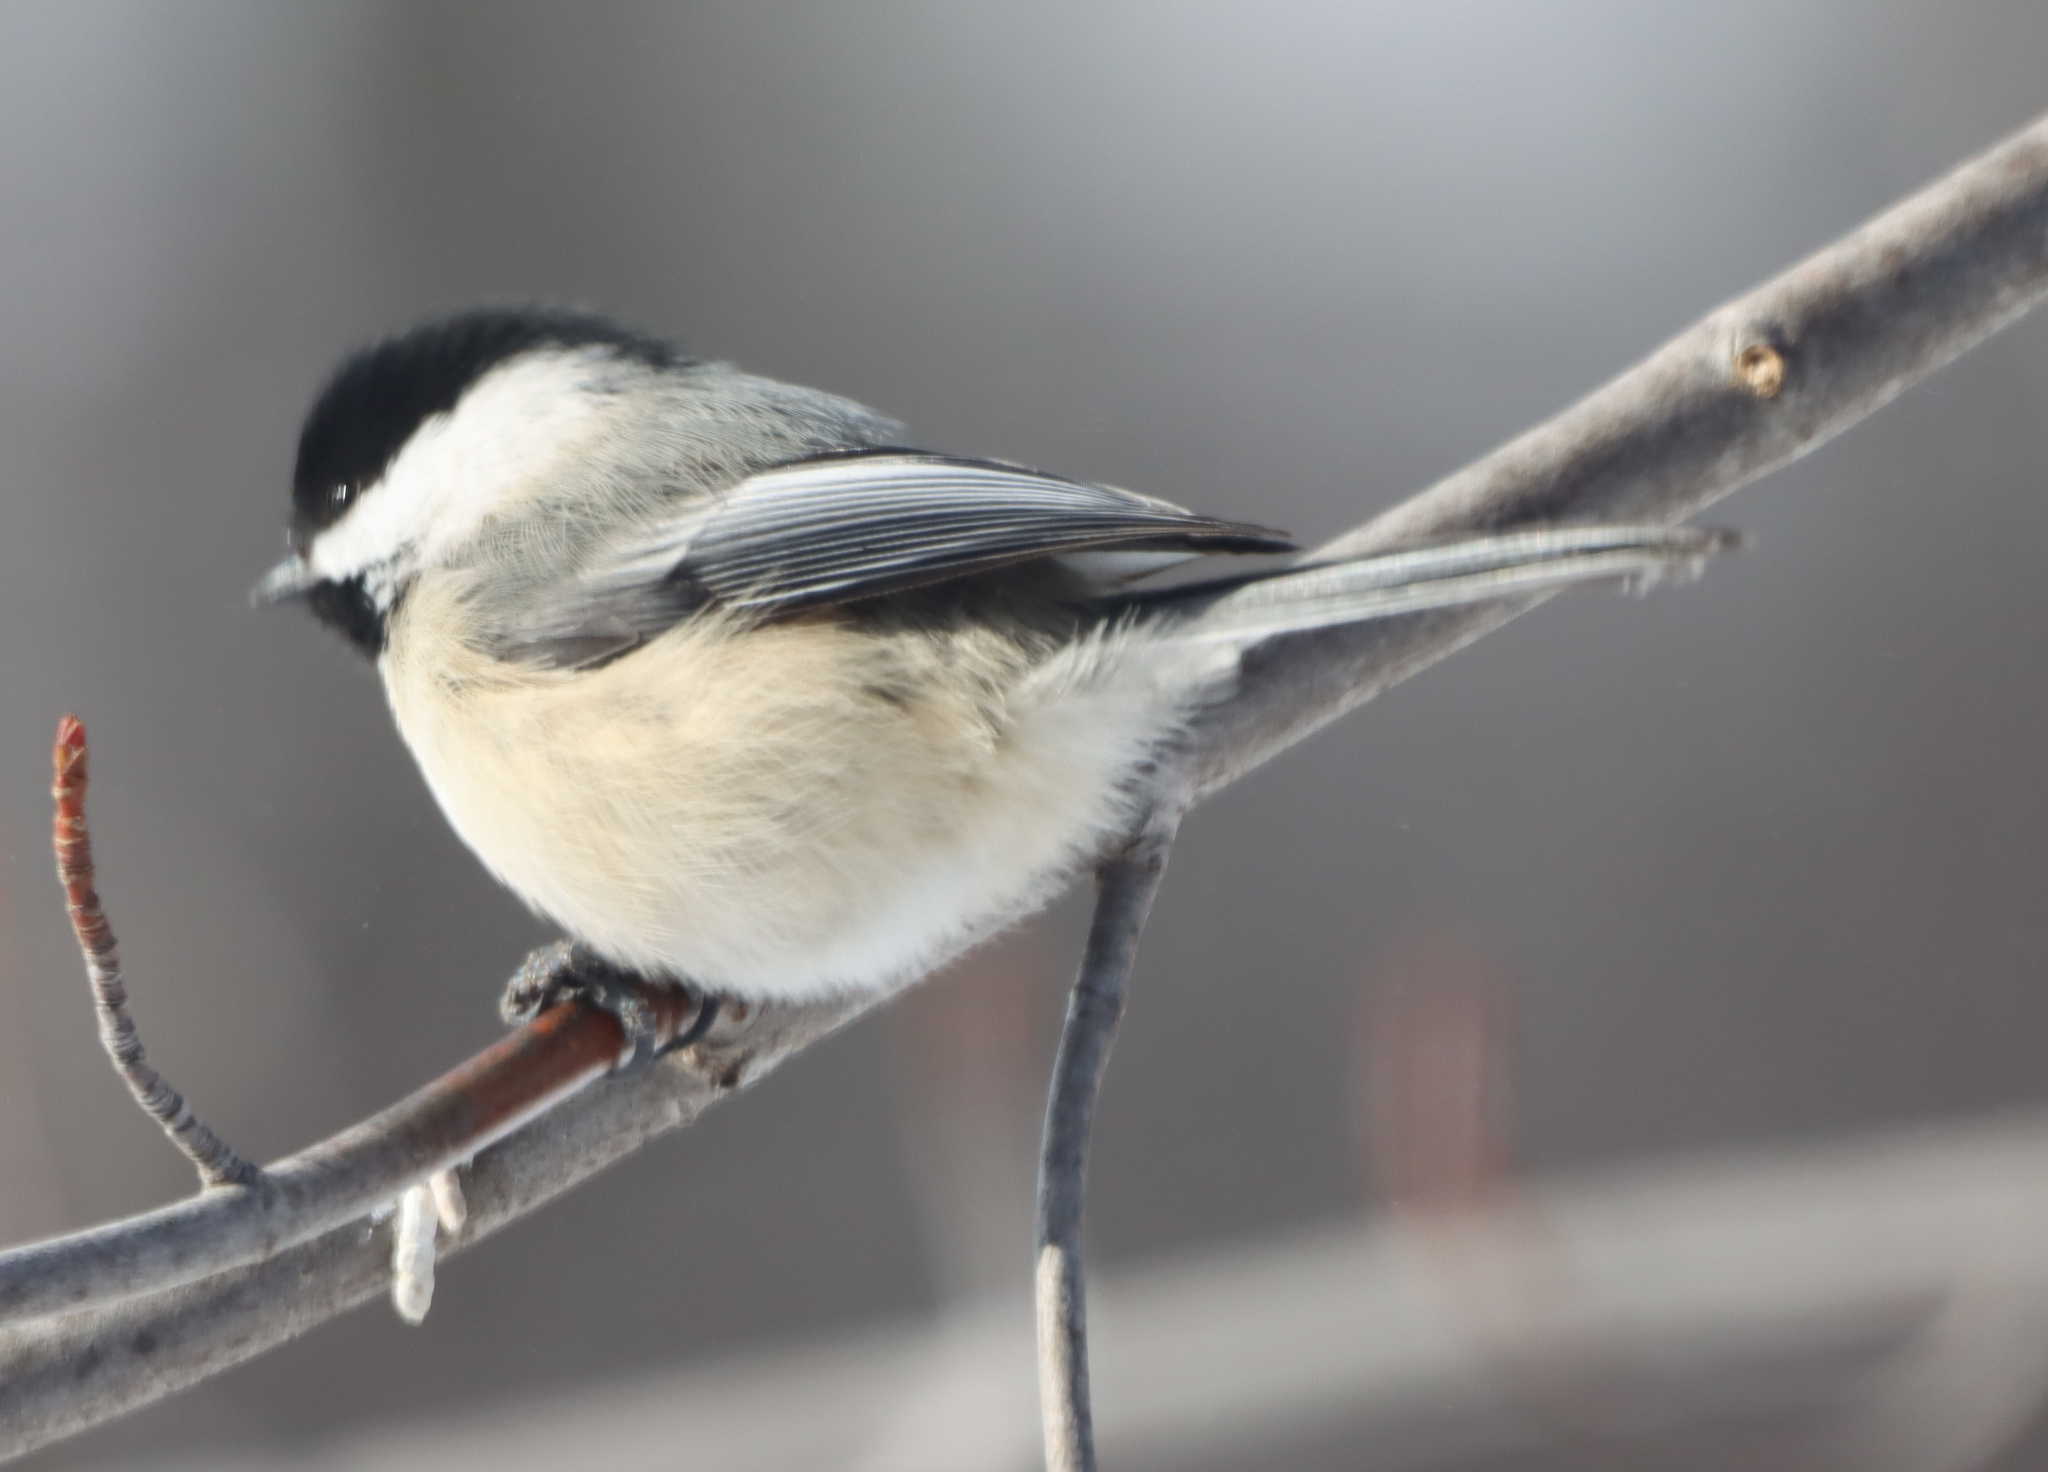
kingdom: Animalia
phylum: Chordata
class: Aves
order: Passeriformes
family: Paridae
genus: Poecile
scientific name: Poecile atricapillus
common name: Black-capped chickadee
